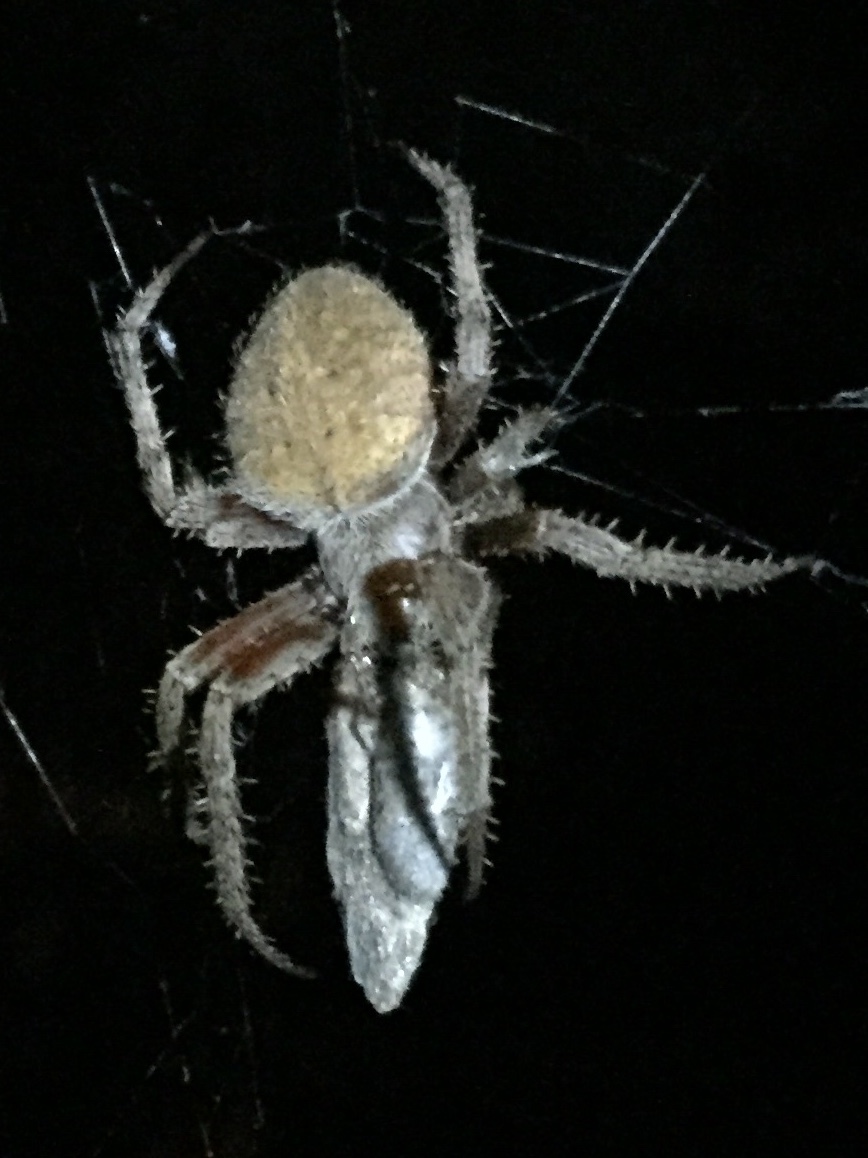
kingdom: Animalia
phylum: Arthropoda
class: Arachnida
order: Araneae
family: Araneidae
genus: Neoscona
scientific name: Neoscona crucifera
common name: Spotted orbweaver
